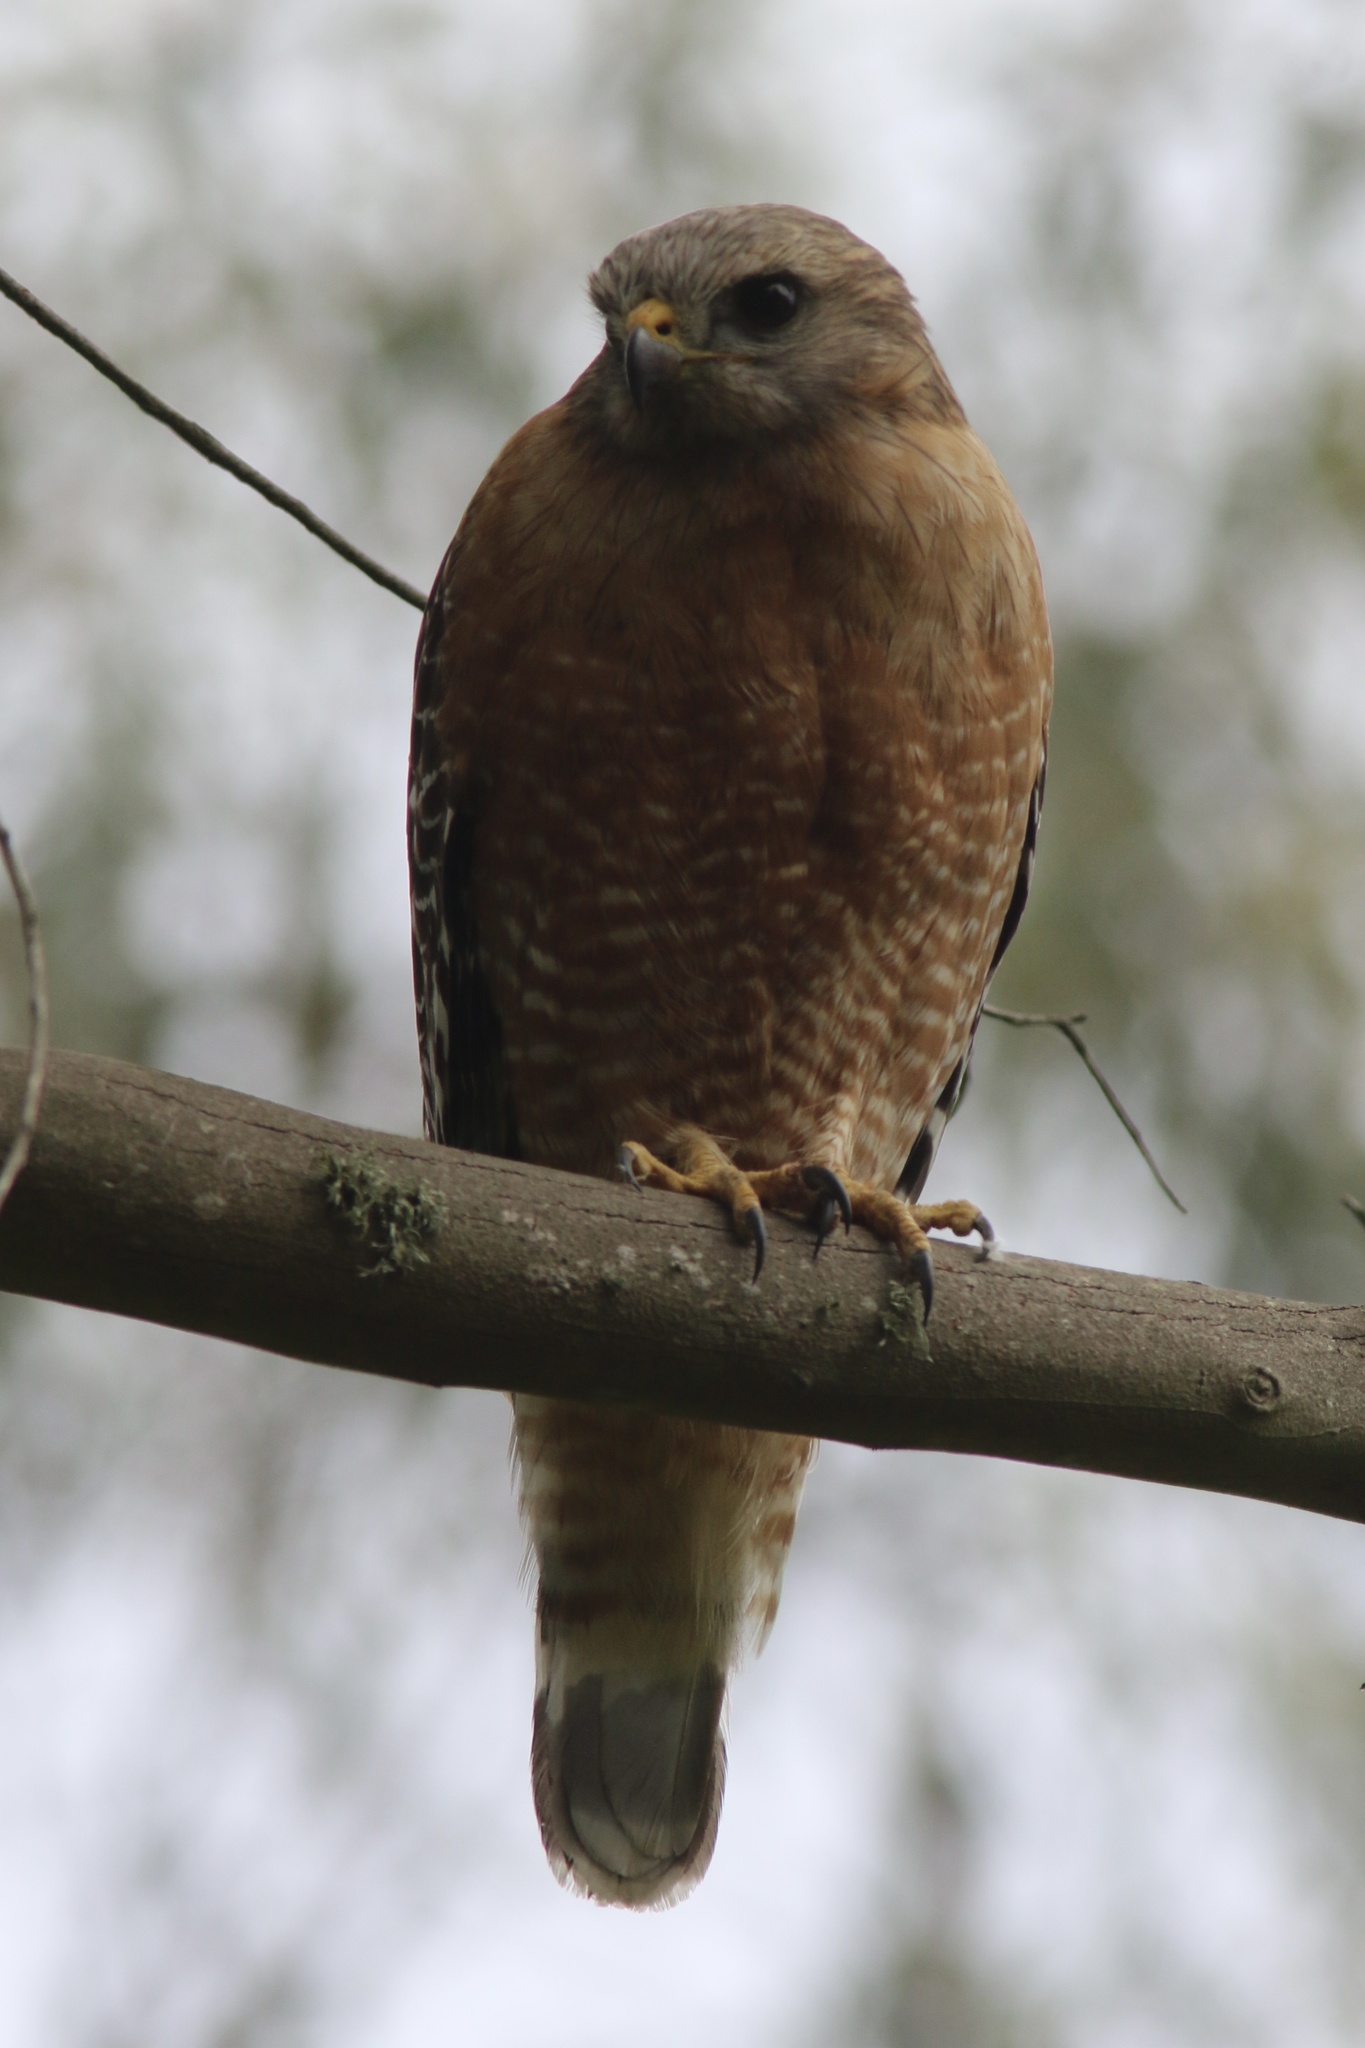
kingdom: Animalia
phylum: Chordata
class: Aves
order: Accipitriformes
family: Accipitridae
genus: Buteo
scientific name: Buteo lineatus
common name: Red-shouldered hawk
